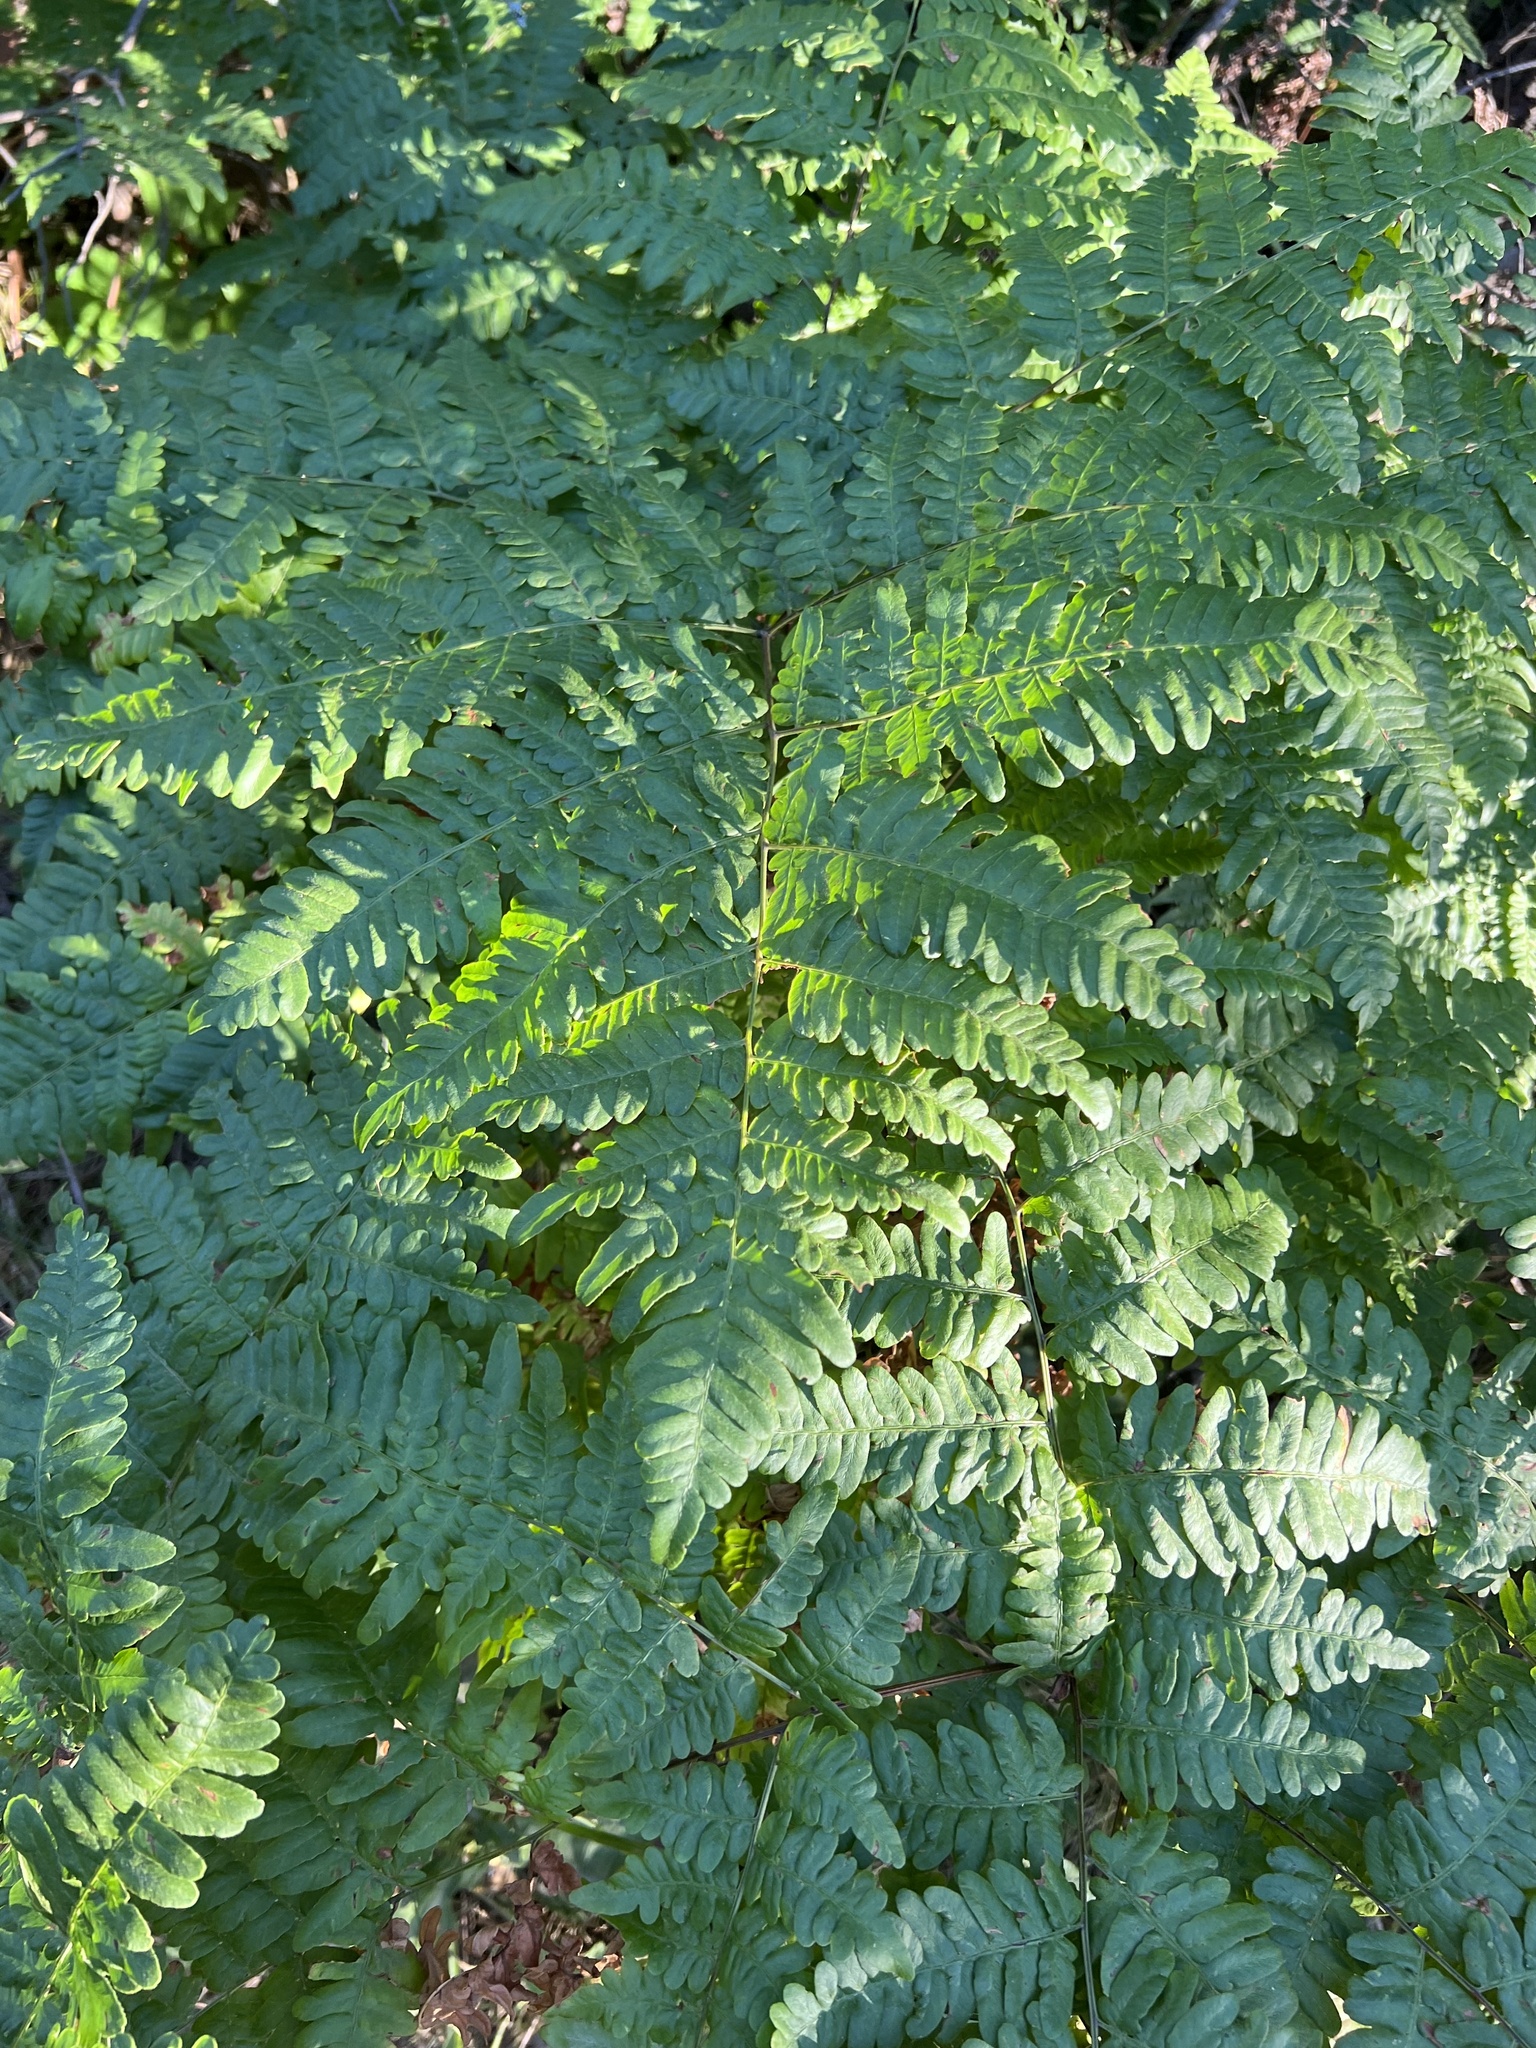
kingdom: Plantae
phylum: Tracheophyta
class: Polypodiopsida
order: Polypodiales
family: Dennstaedtiaceae
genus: Pteridium
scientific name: Pteridium aquilinum
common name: Bracken
